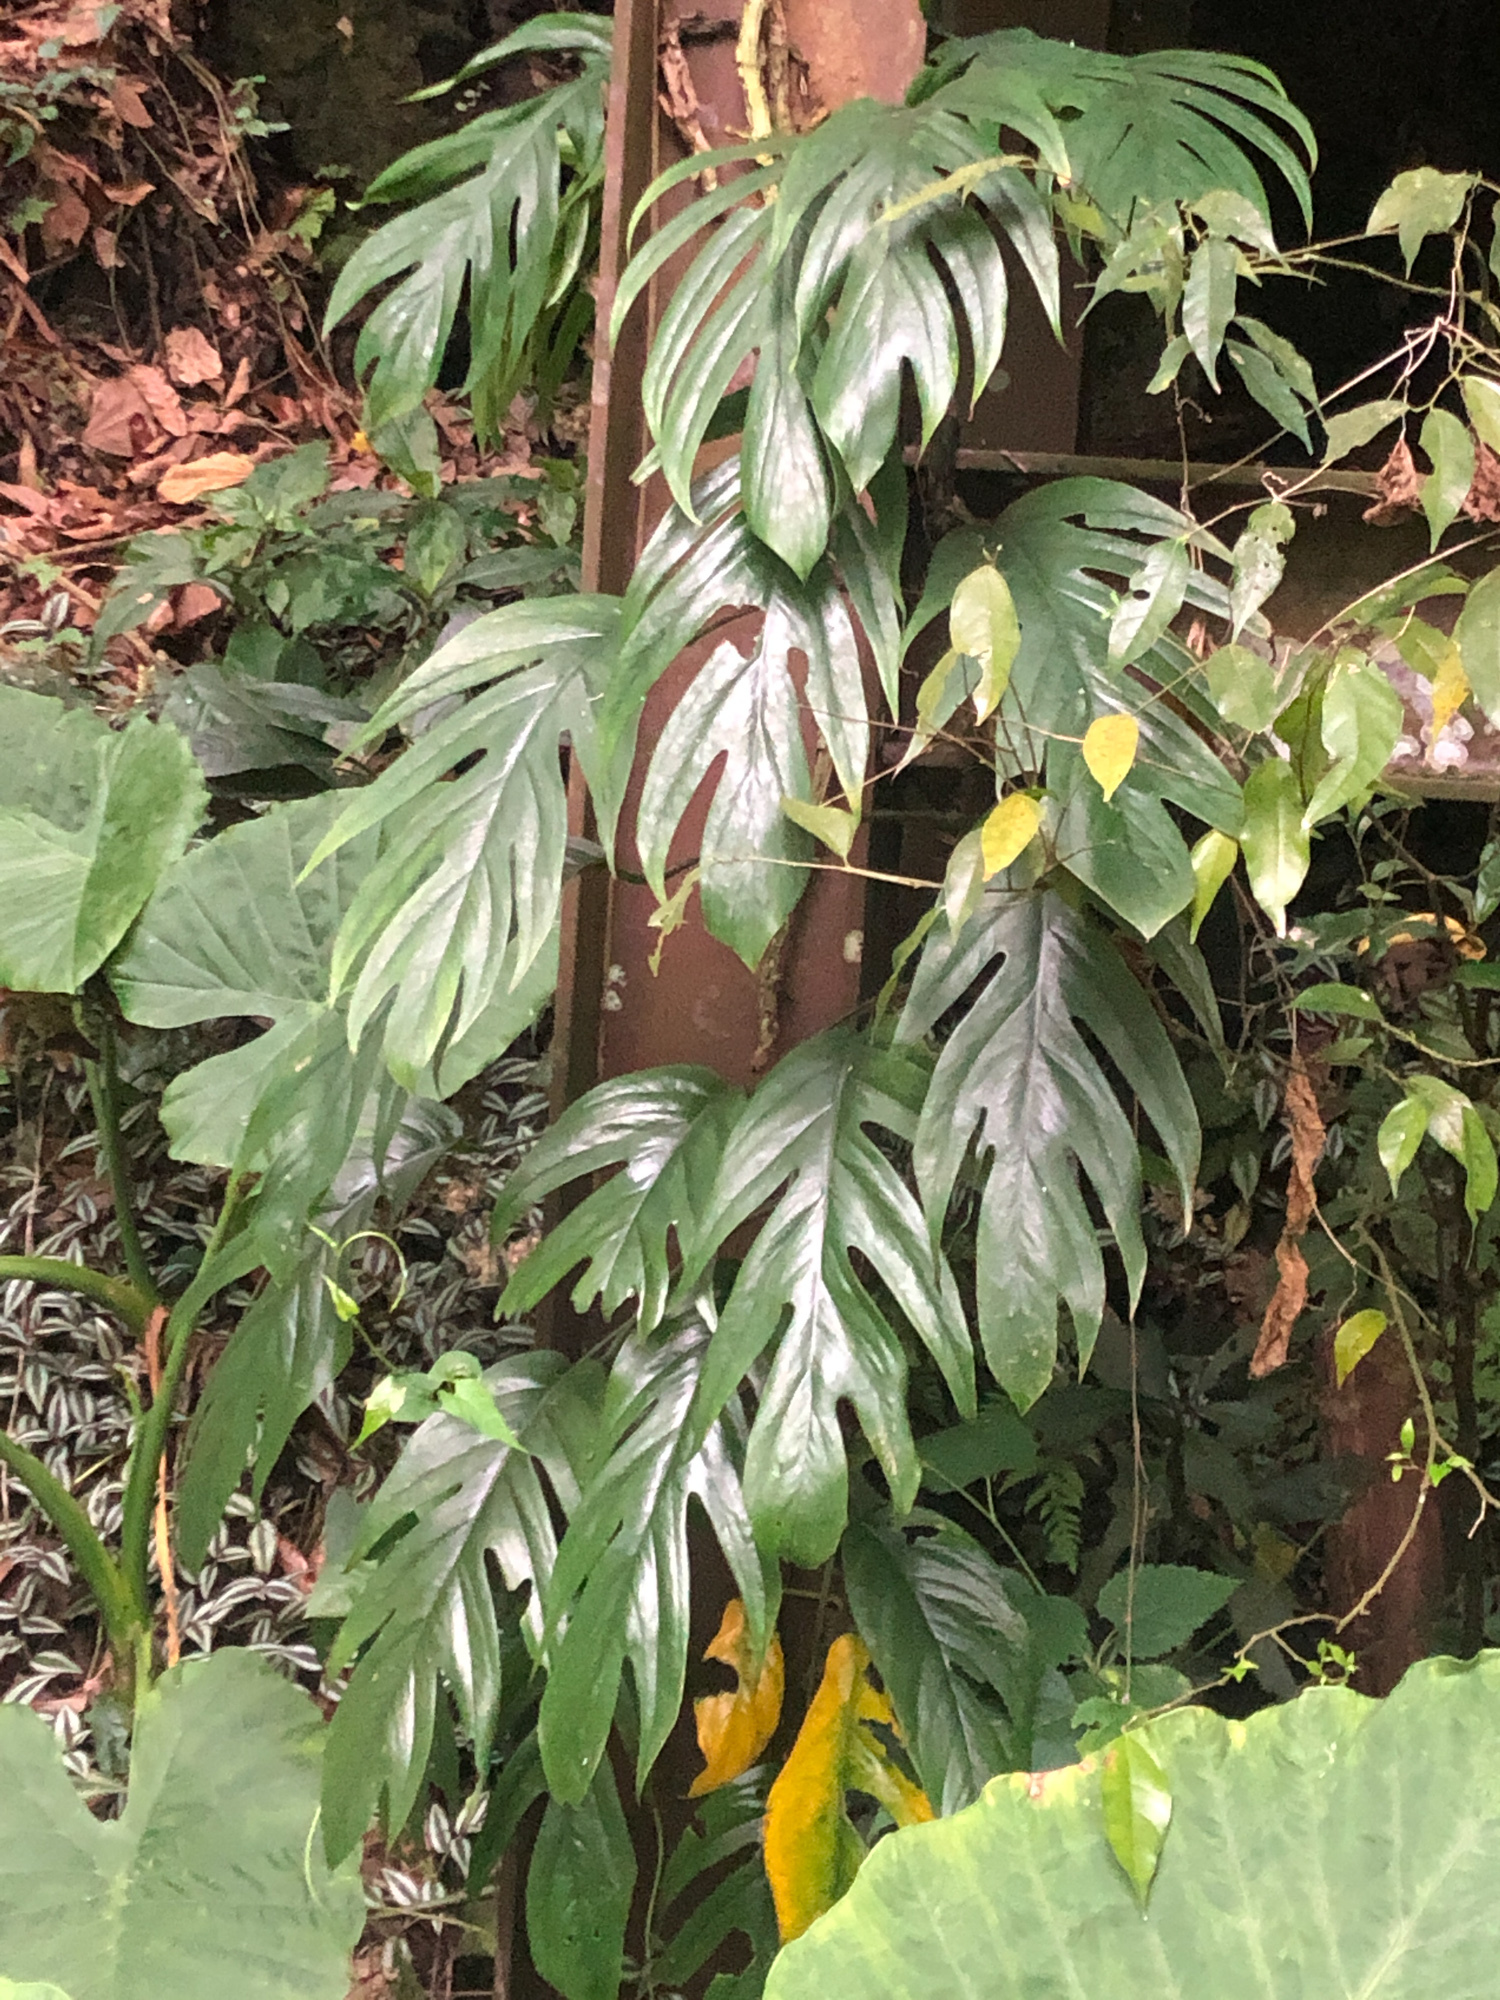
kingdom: Plantae
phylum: Tracheophyta
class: Liliopsida
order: Alismatales
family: Araceae
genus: Epipremnum
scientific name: Epipremnum pinnatum
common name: Centipede tongavine
